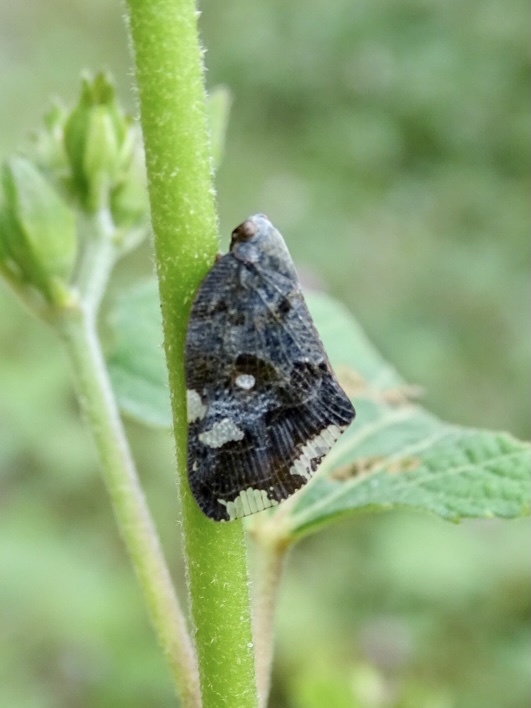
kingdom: Animalia
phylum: Arthropoda
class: Insecta
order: Hemiptera
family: Ricaniidae
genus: Ricania
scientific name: Ricania speculum
